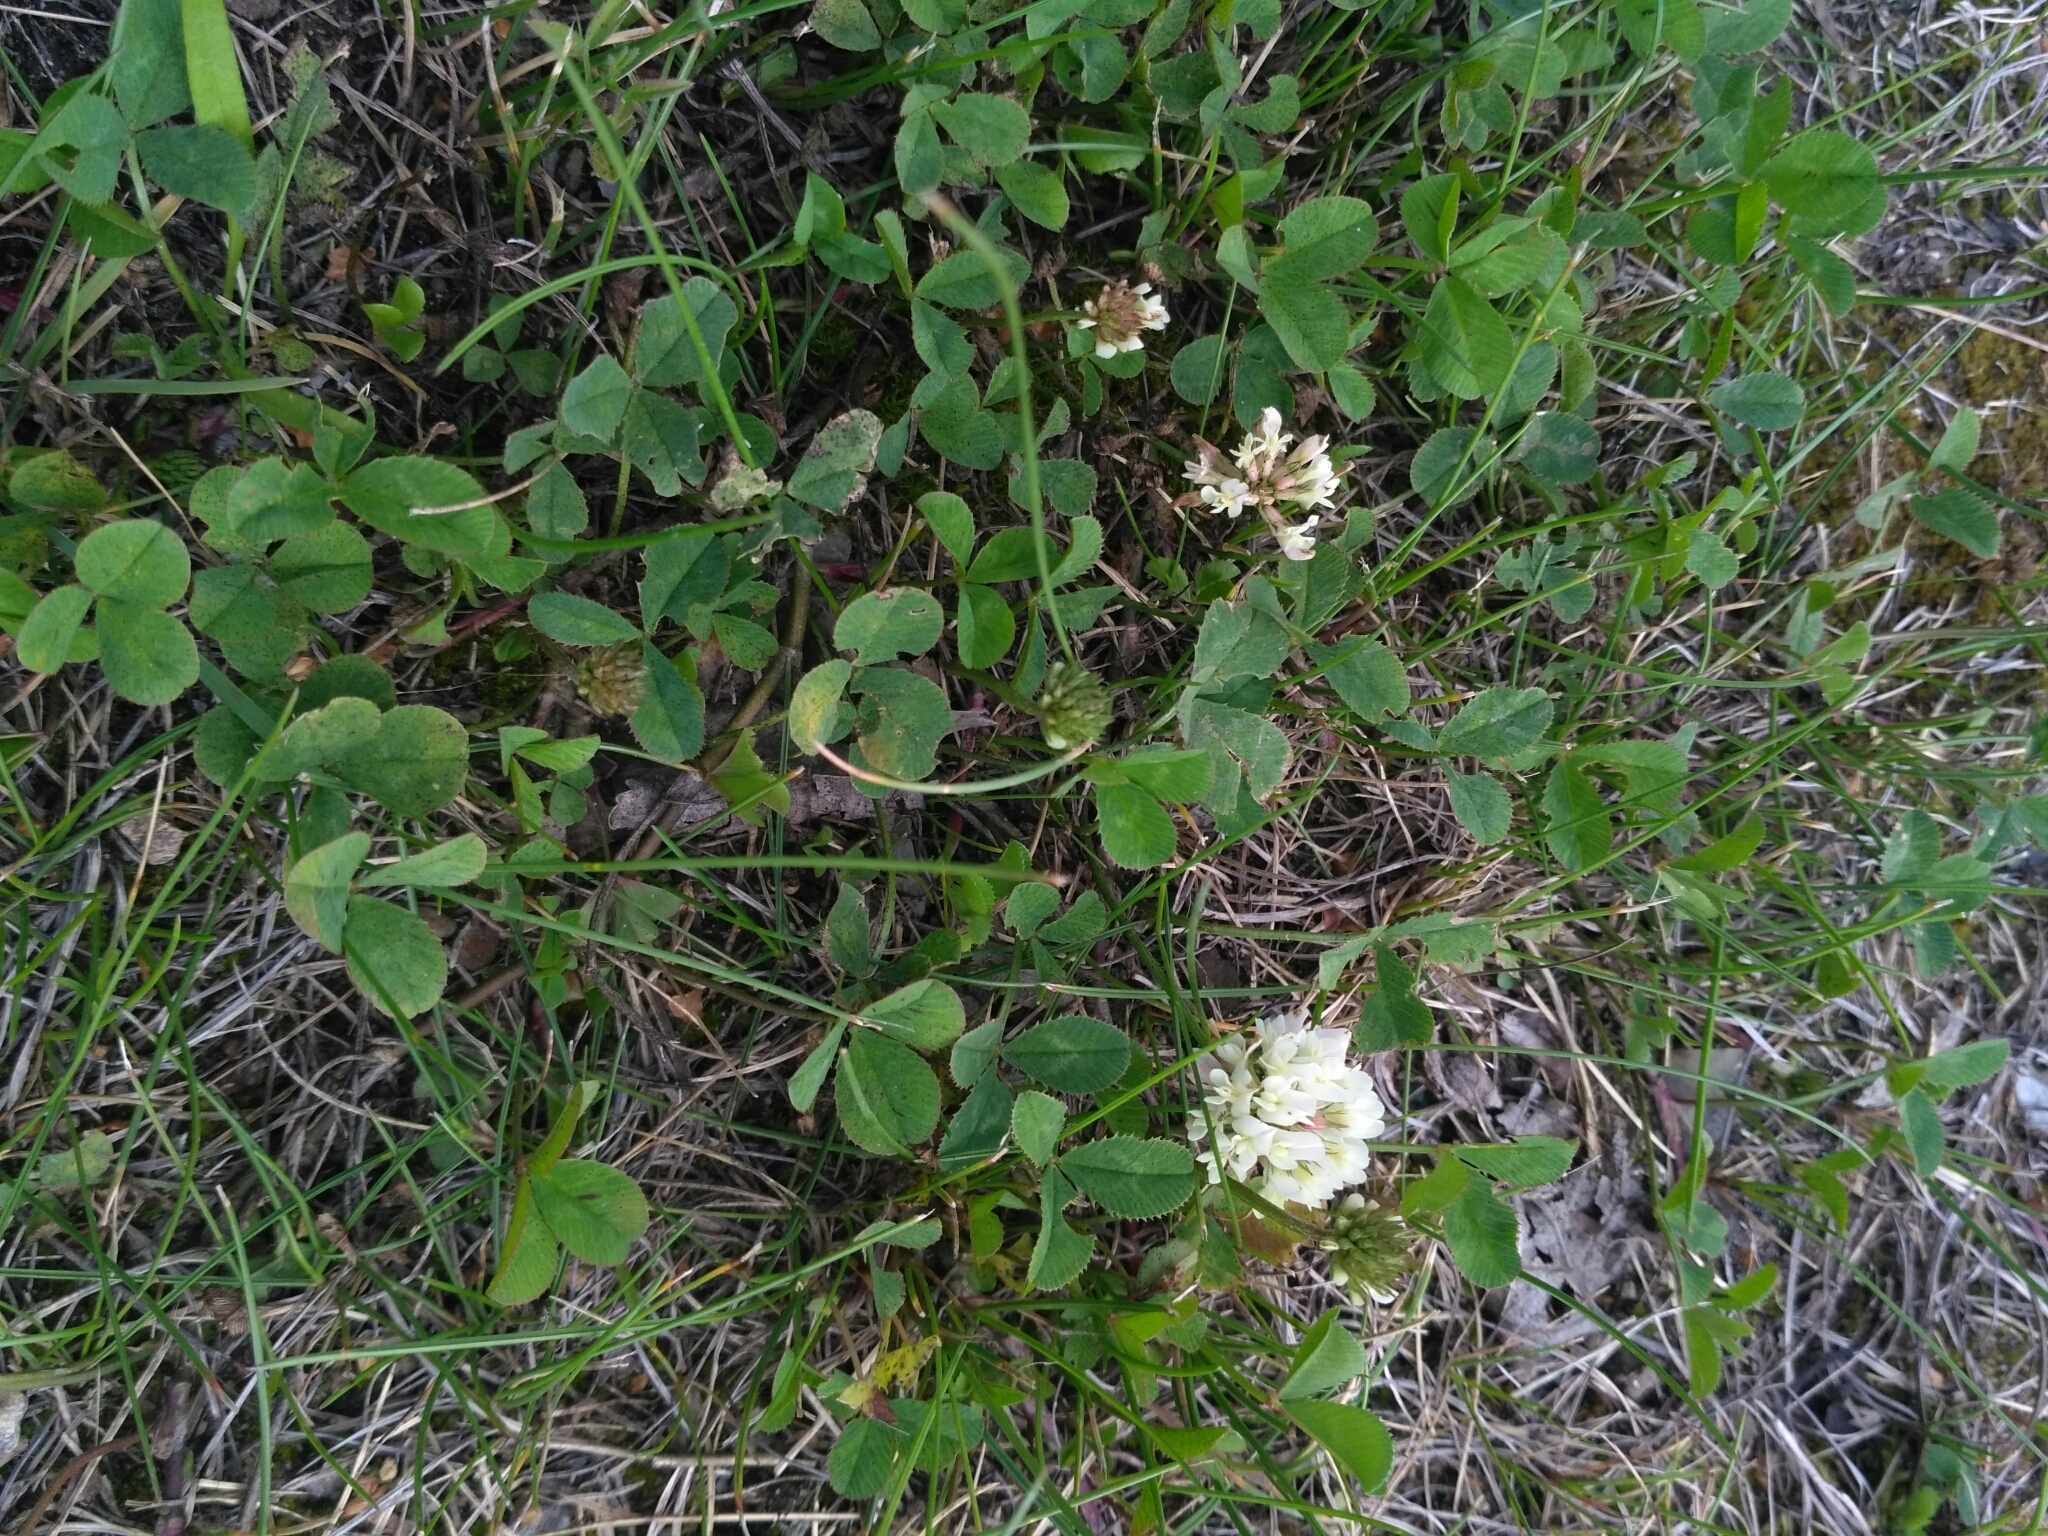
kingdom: Plantae
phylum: Tracheophyta
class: Magnoliopsida
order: Fabales
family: Fabaceae
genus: Trifolium
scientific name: Trifolium repens
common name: White clover
